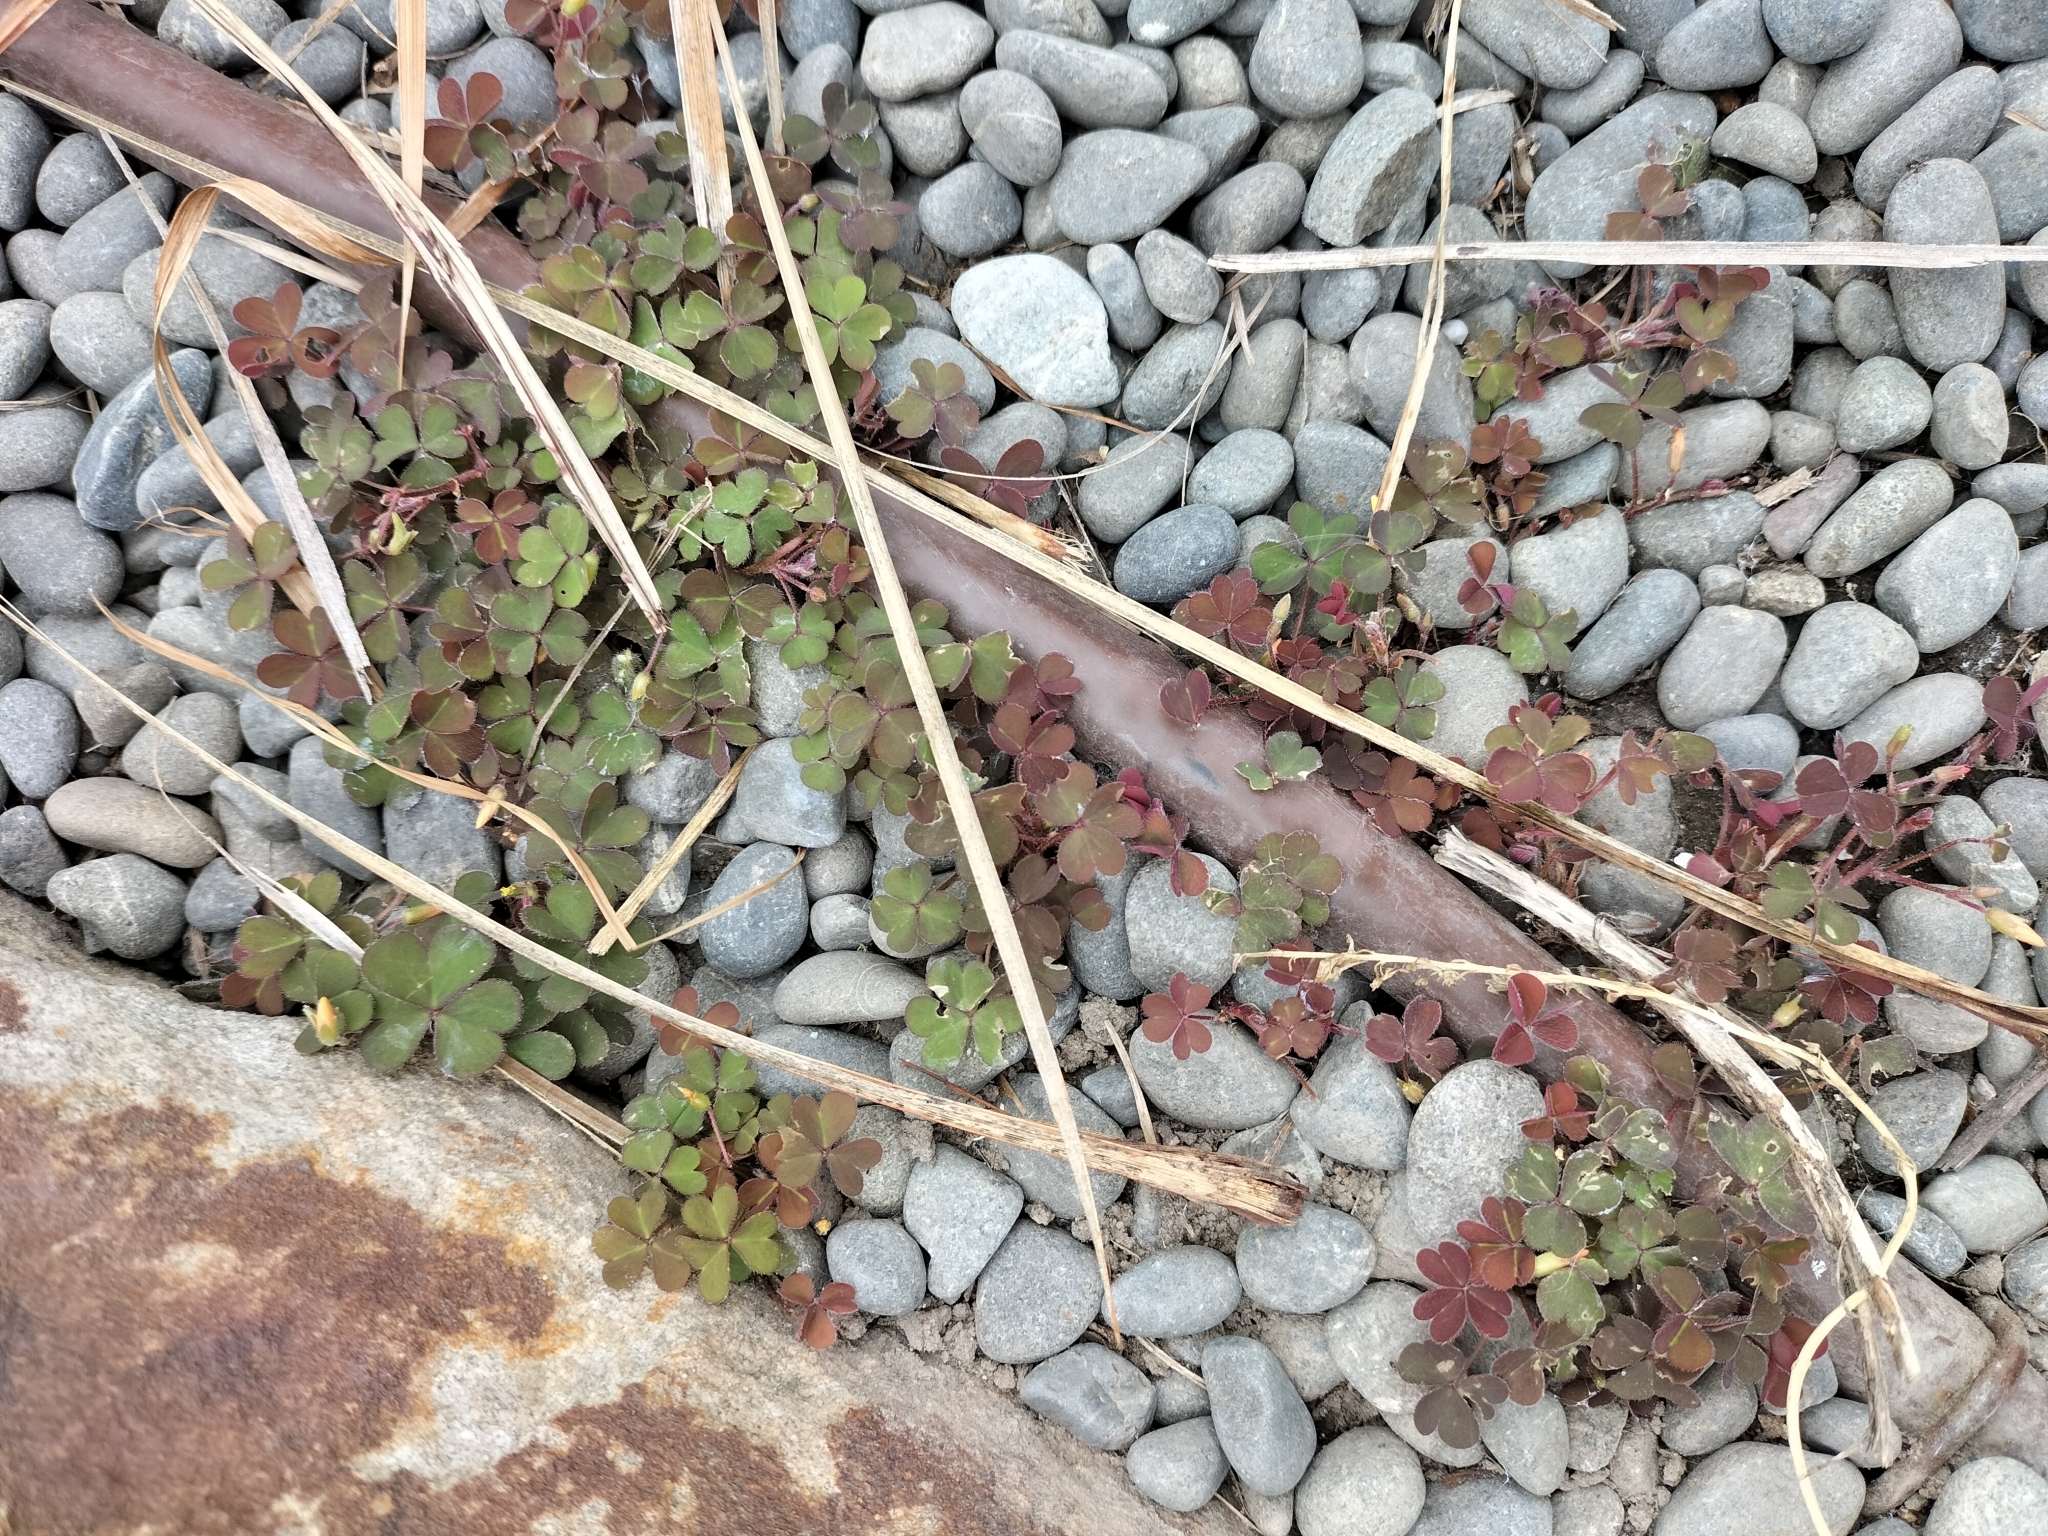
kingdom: Plantae
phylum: Tracheophyta
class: Magnoliopsida
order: Oxalidales
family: Oxalidaceae
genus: Oxalis
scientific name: Oxalis corniculata
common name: Procumbent yellow-sorrel
